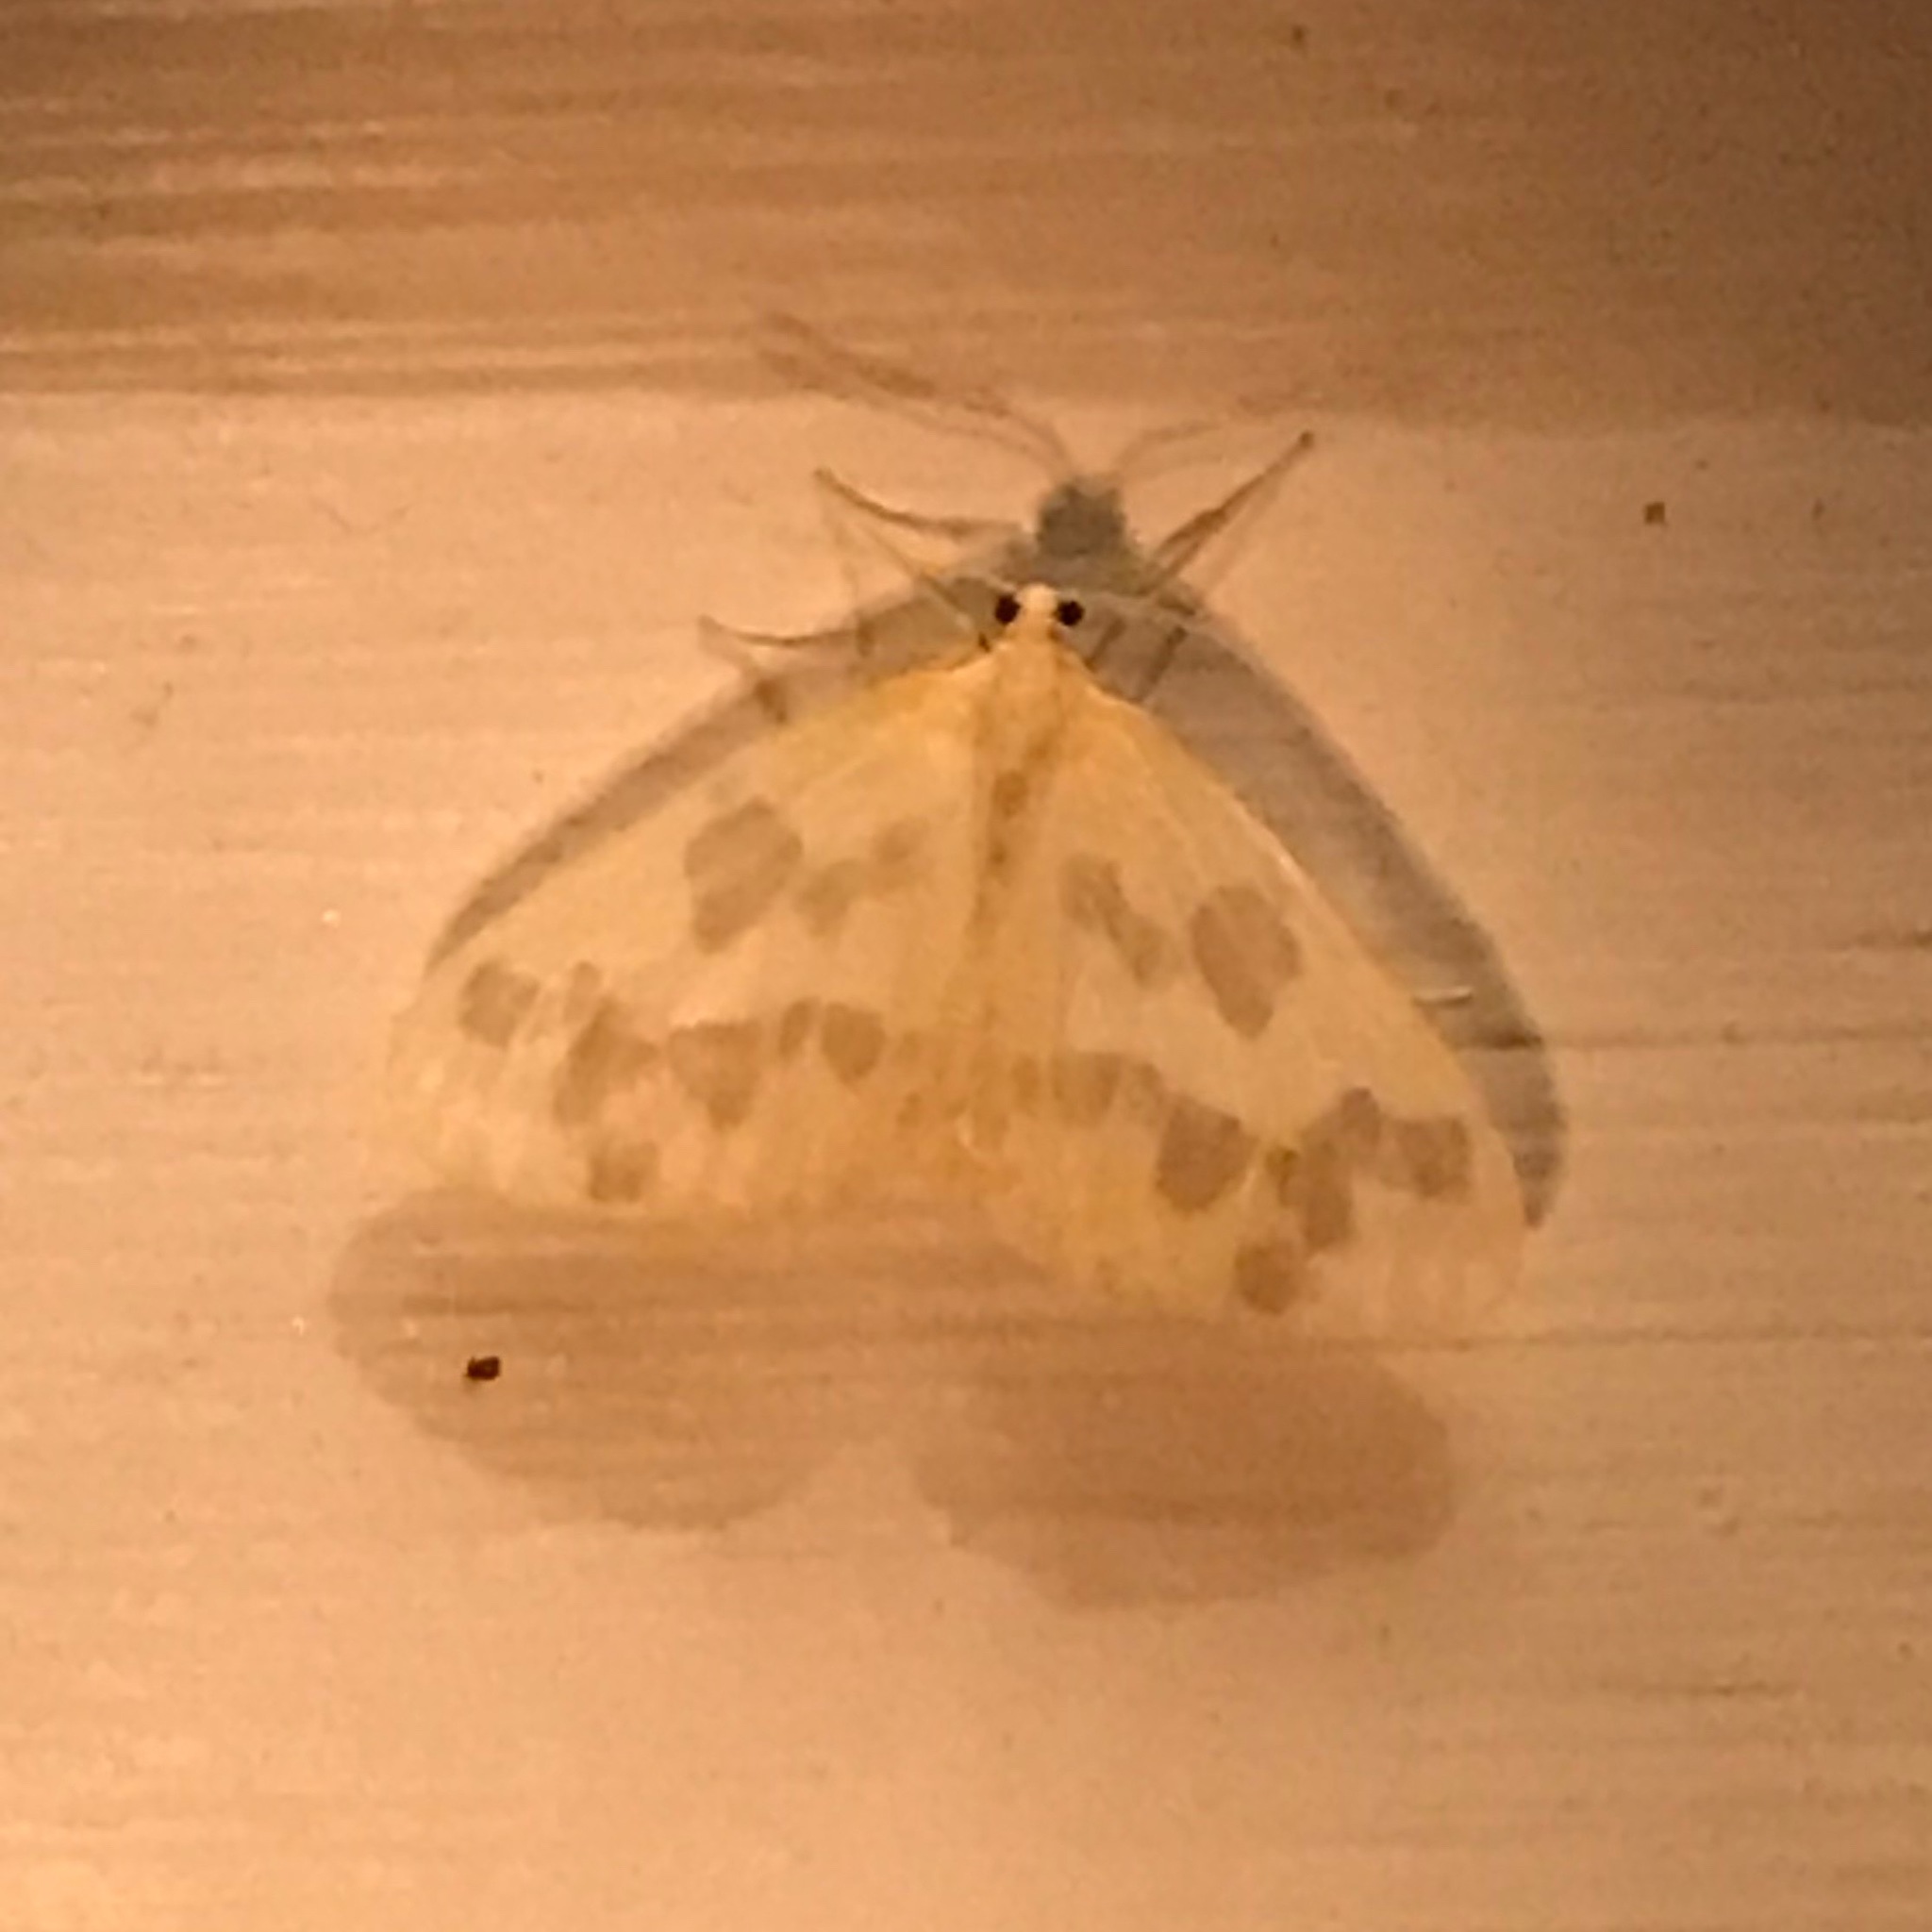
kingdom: Animalia
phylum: Arthropoda
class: Insecta
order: Lepidoptera
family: Geometridae
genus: Eubaphe
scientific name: Eubaphe mendica
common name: Beggar
